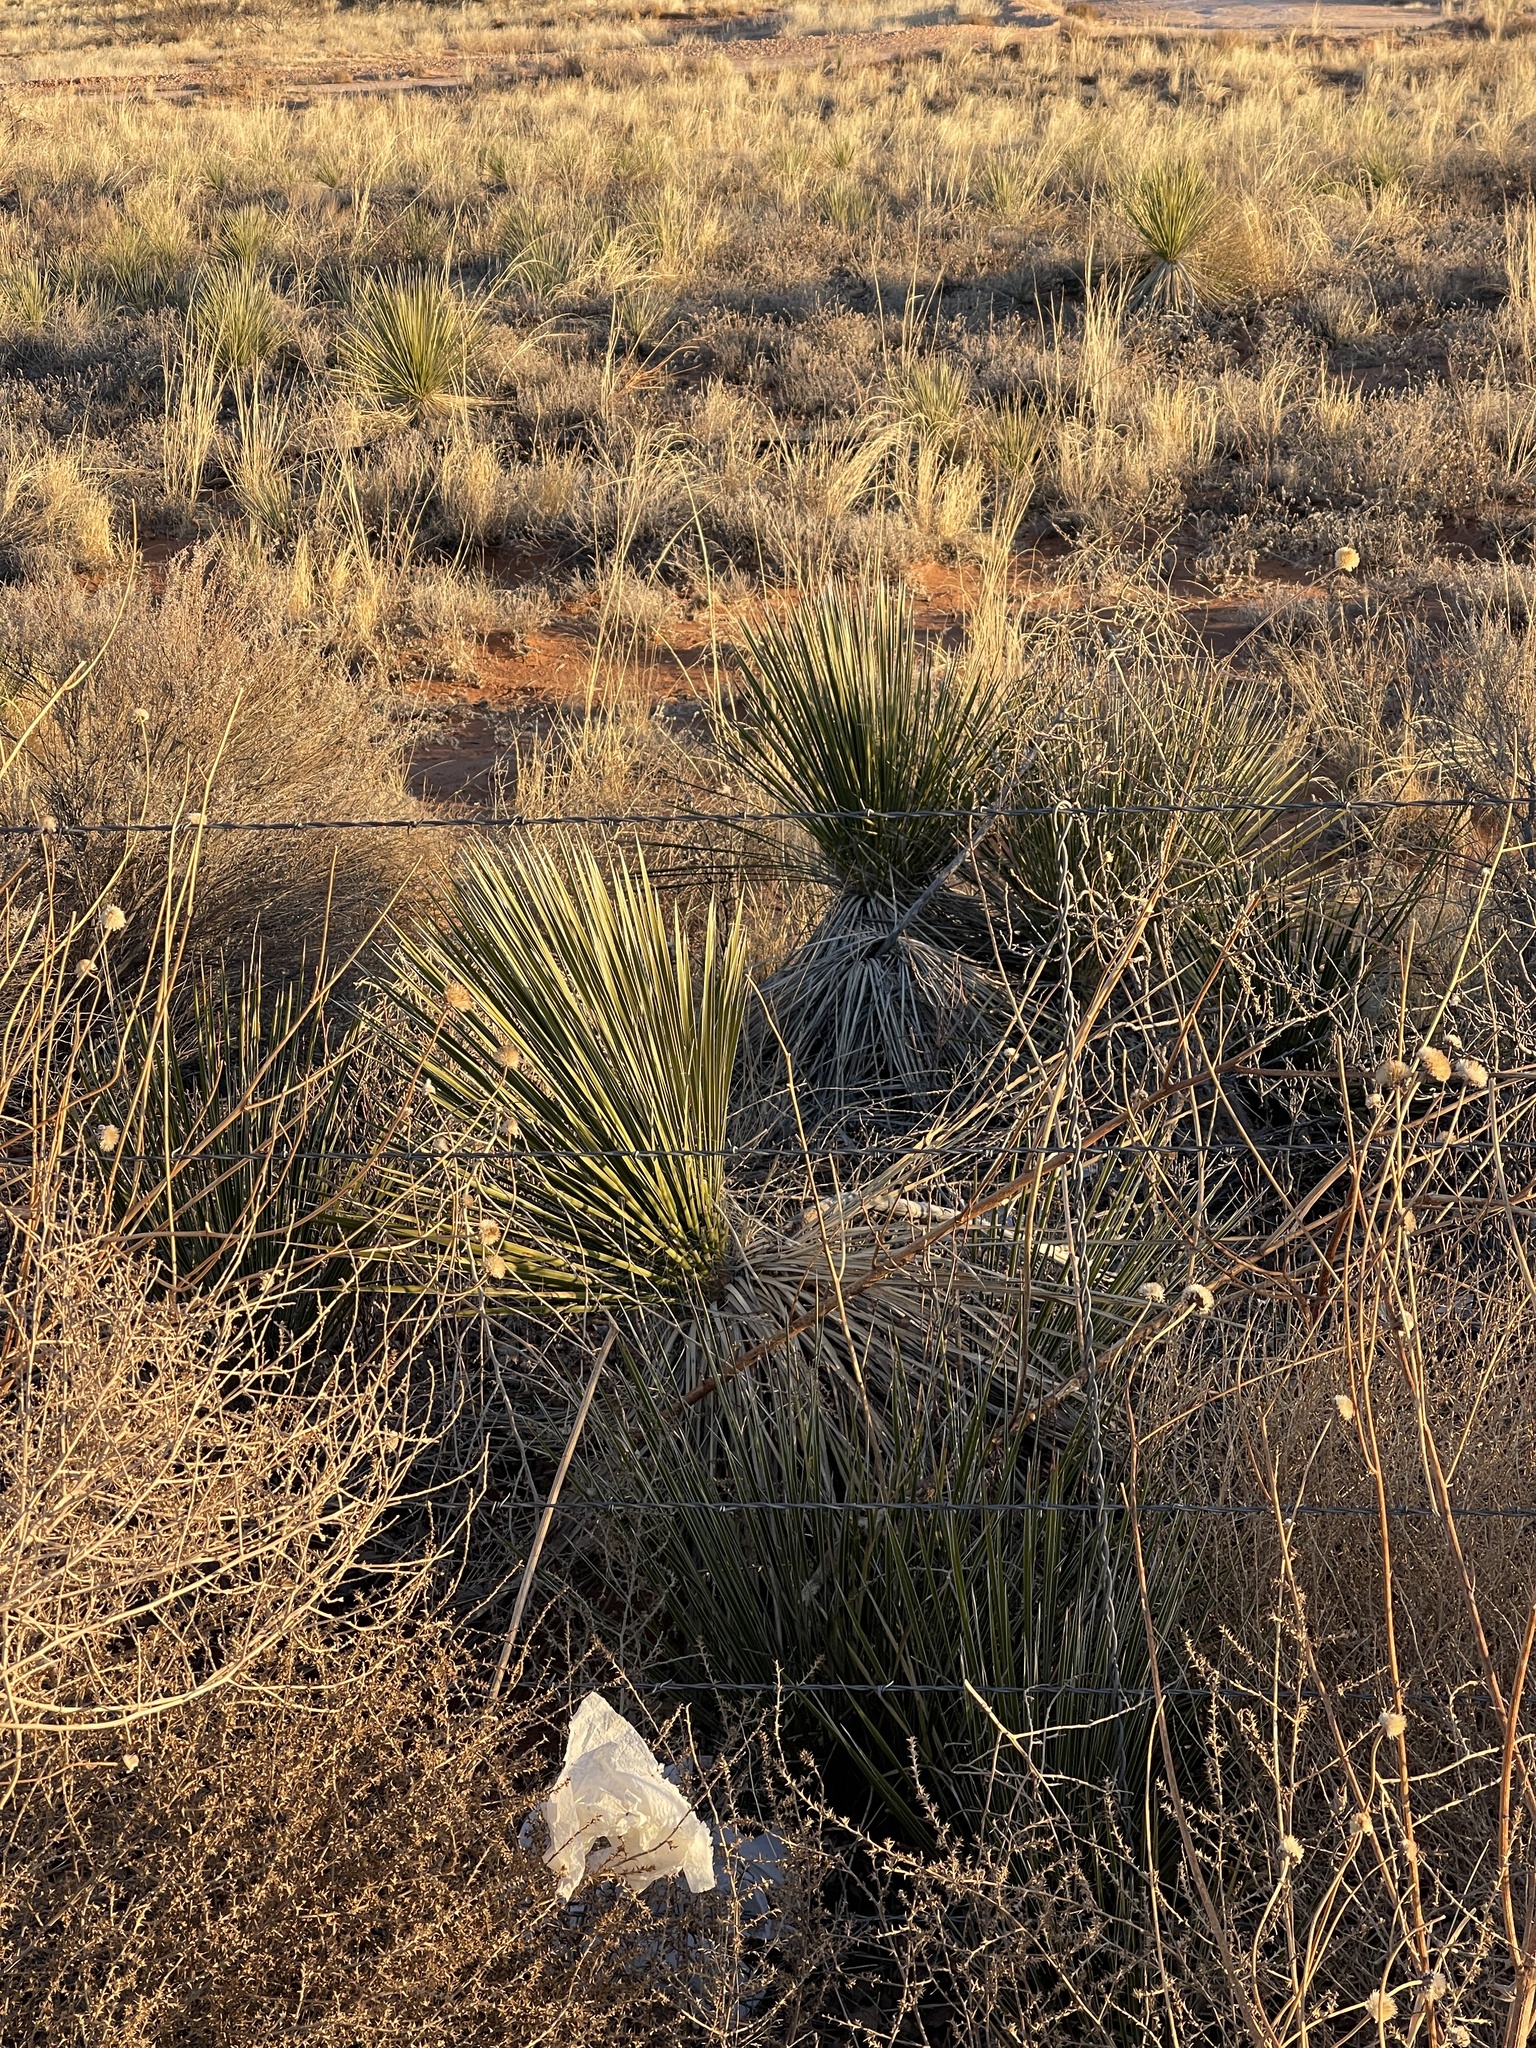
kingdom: Plantae
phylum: Tracheophyta
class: Liliopsida
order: Asparagales
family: Asparagaceae
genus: Yucca
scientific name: Yucca elata
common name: Palmella
